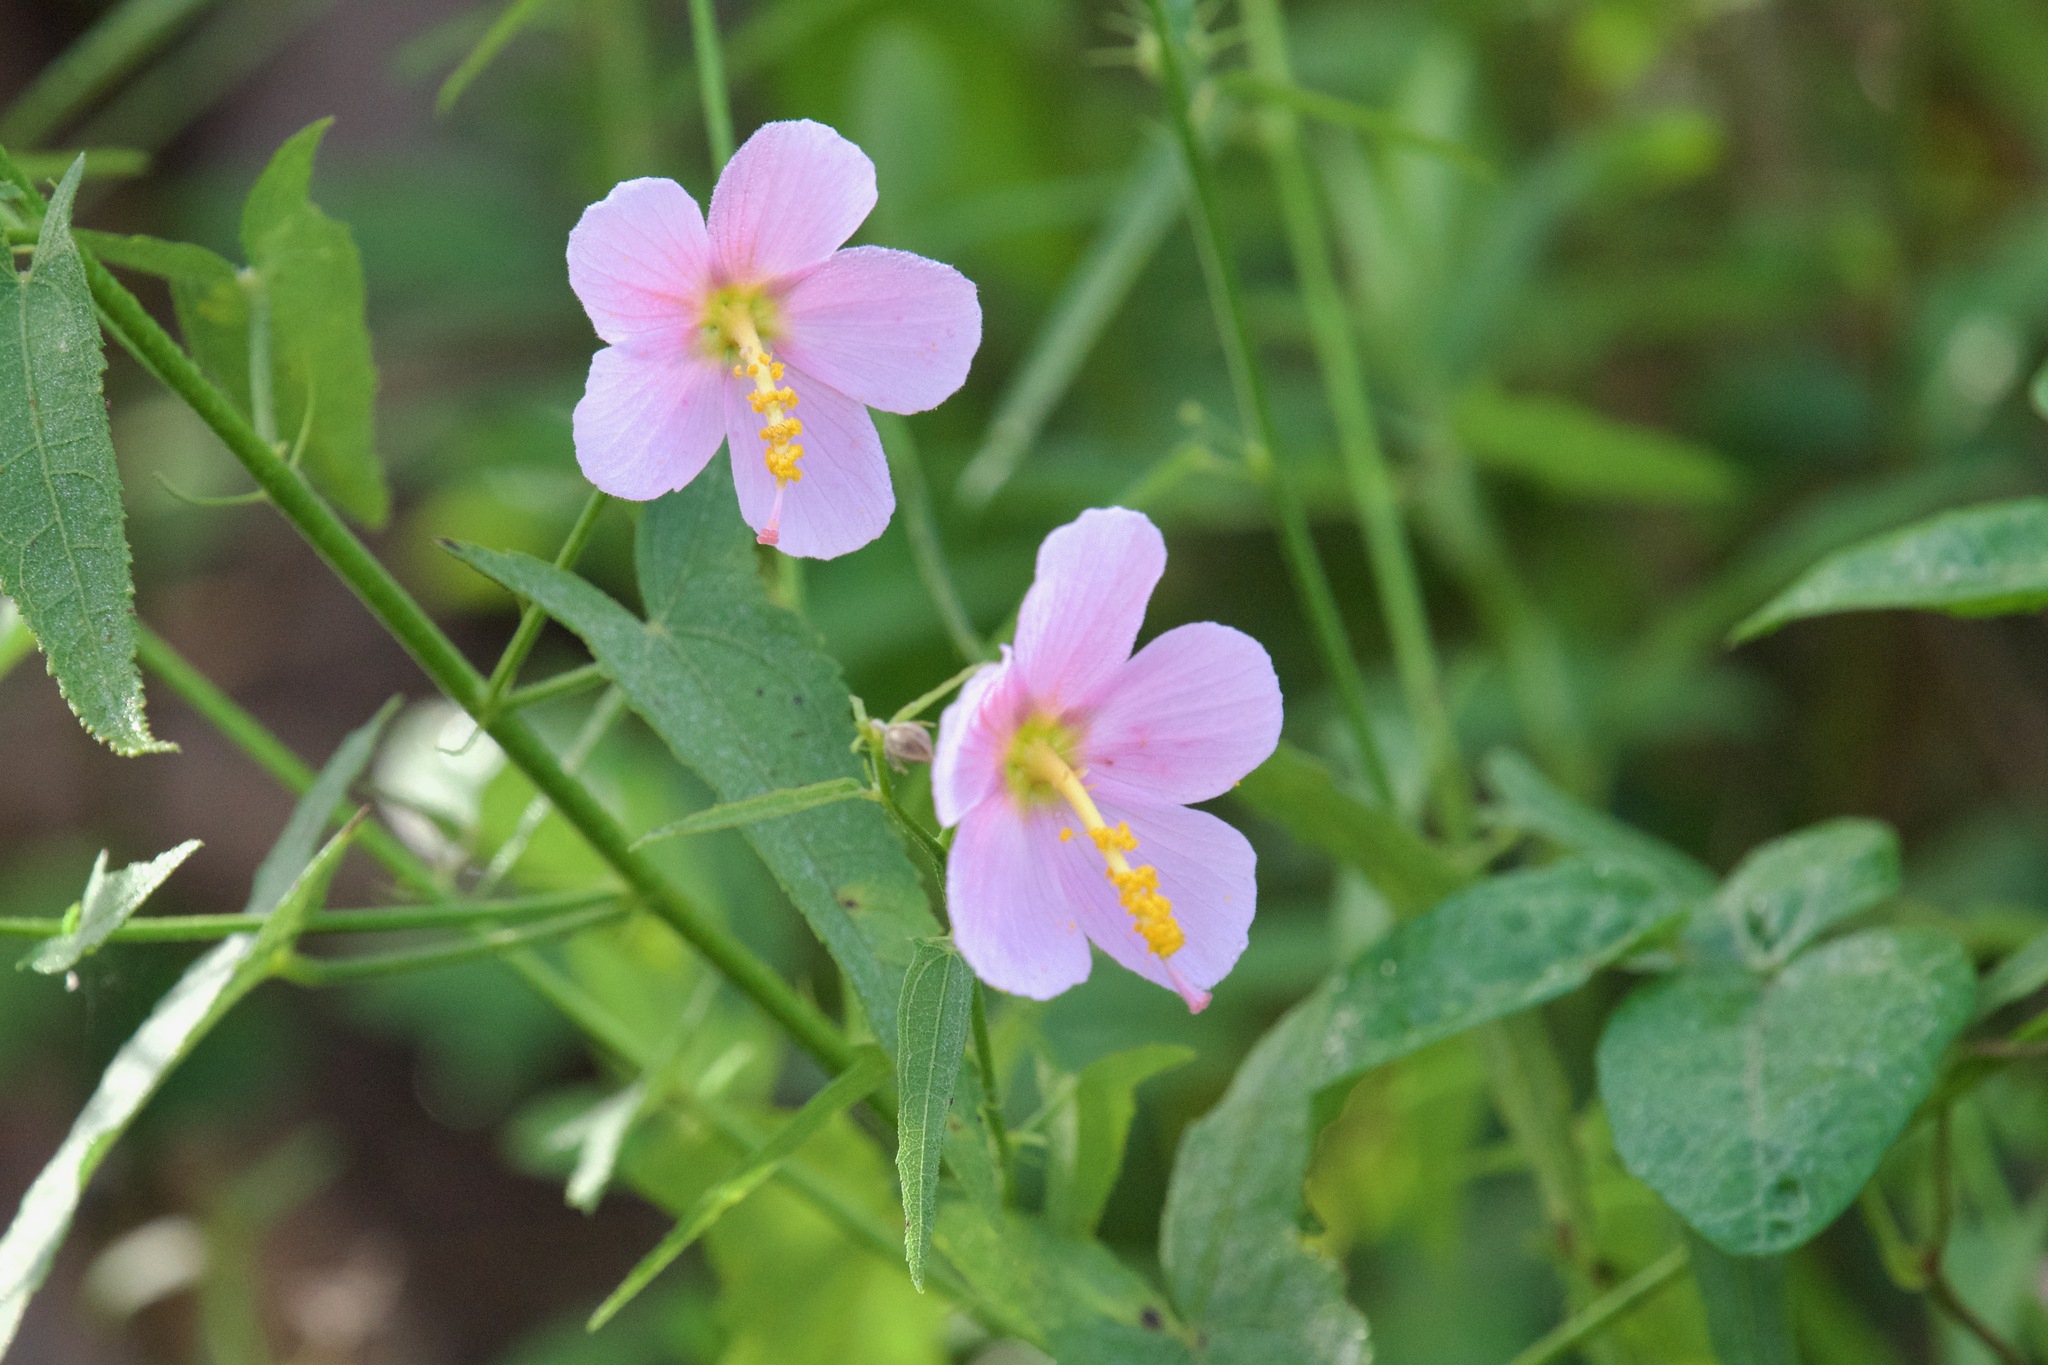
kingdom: Plantae
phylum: Tracheophyta
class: Magnoliopsida
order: Malvales
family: Malvaceae
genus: Kosteletzkya
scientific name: Kosteletzkya pentacarpos
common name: Virginia saltmarsh mallow
